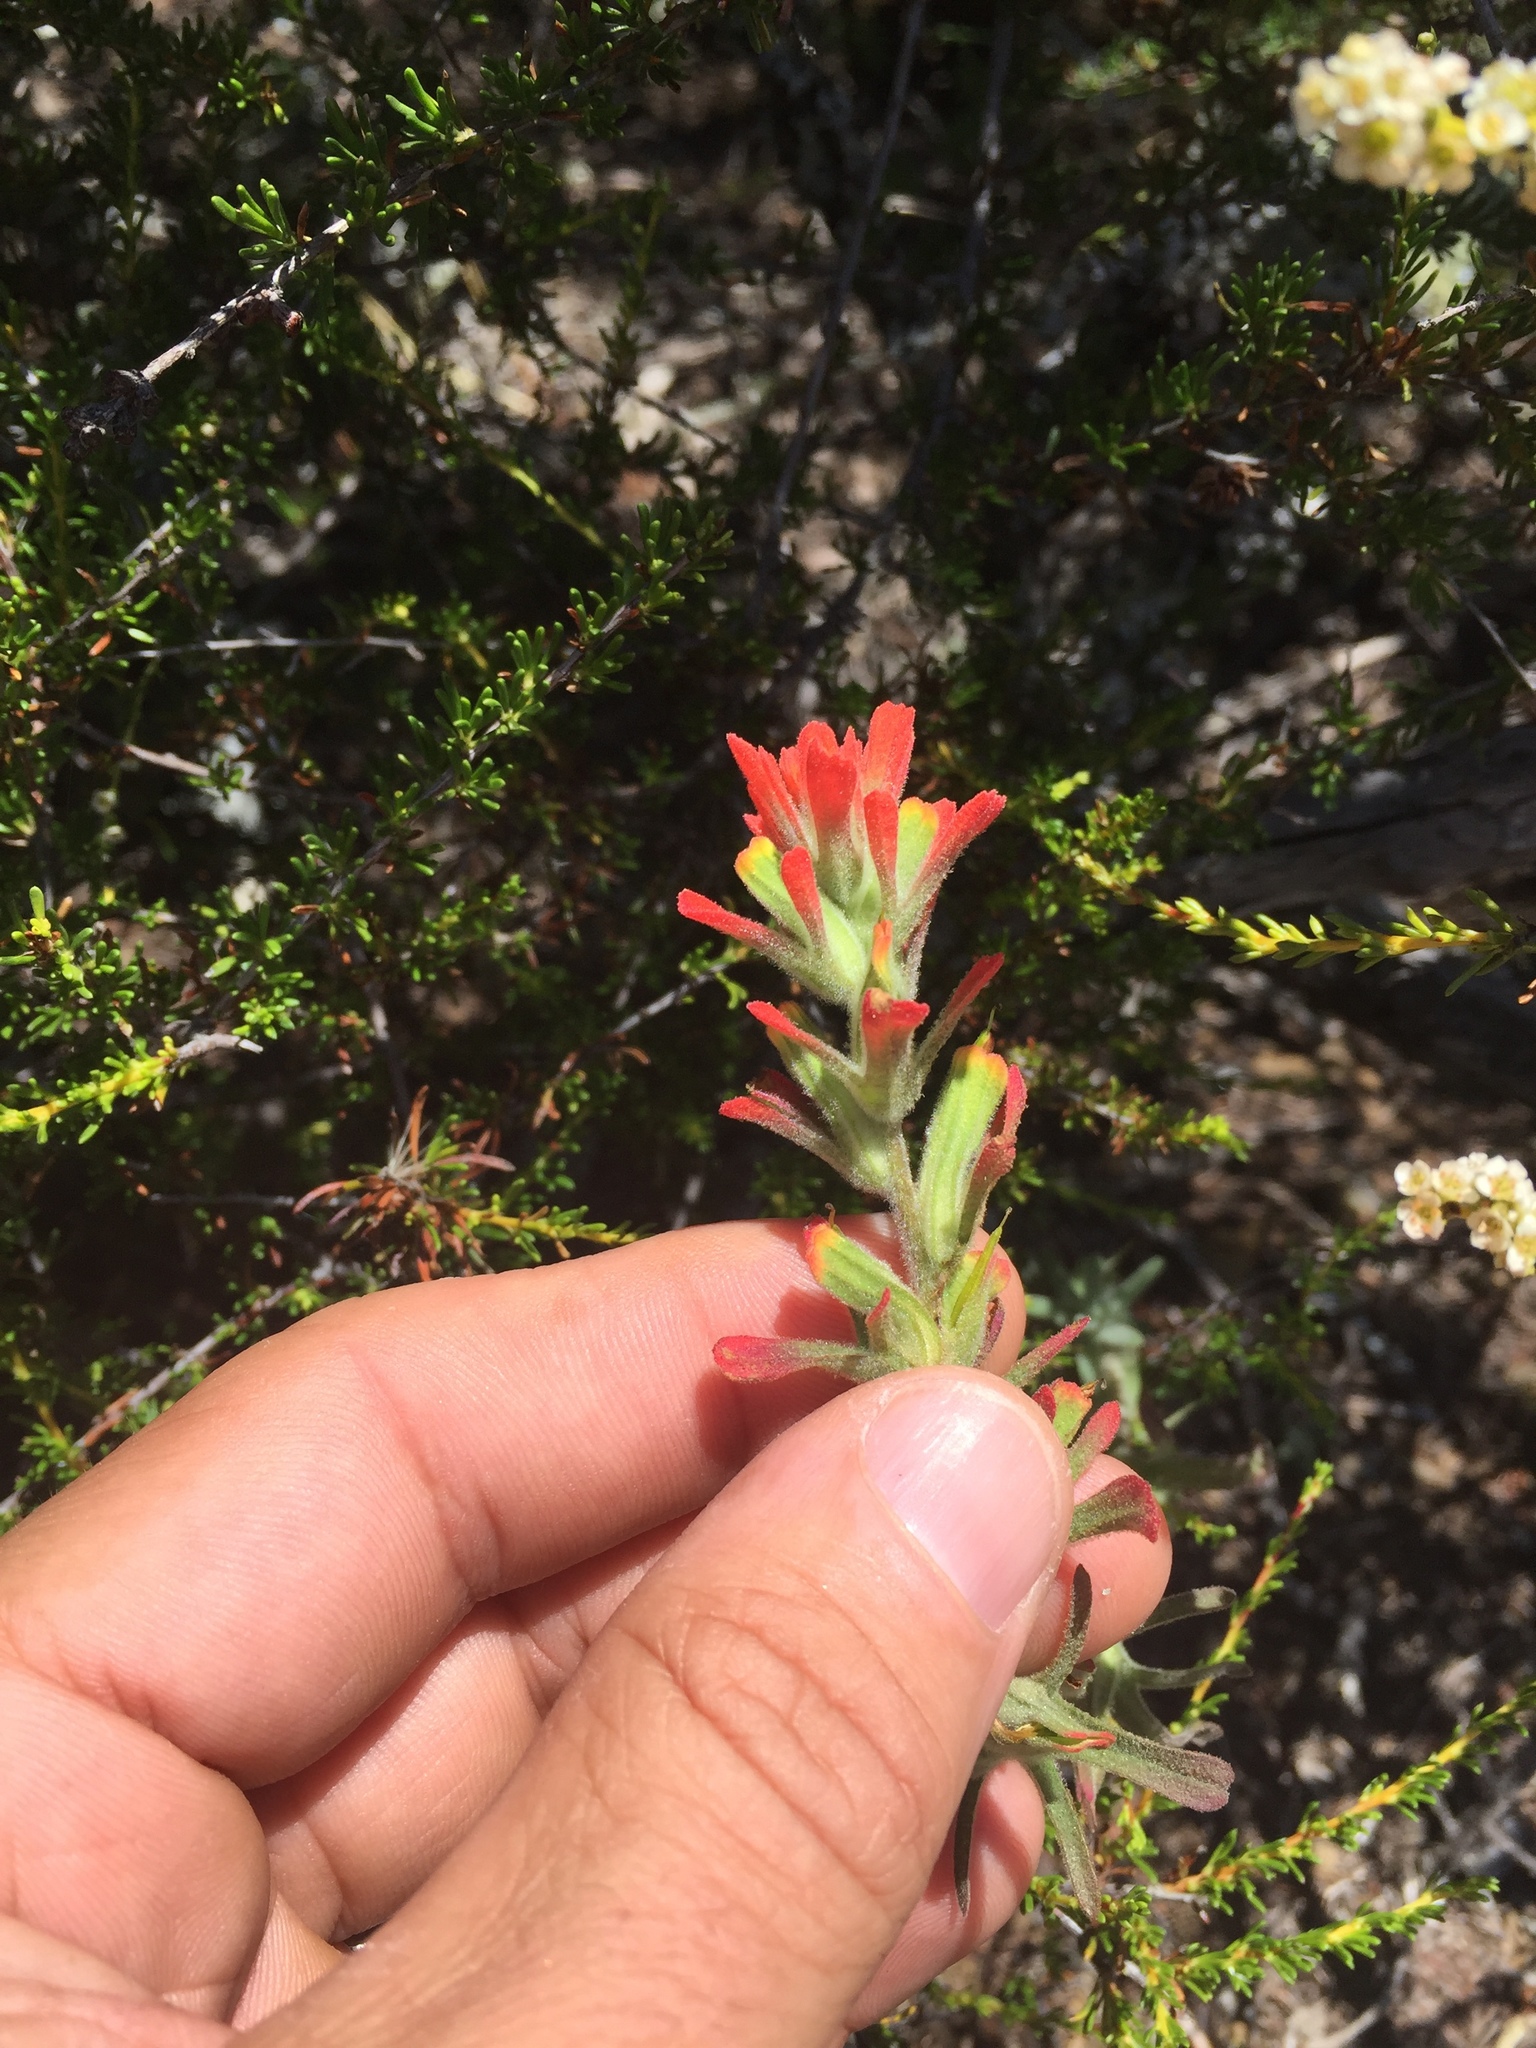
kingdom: Plantae
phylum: Tracheophyta
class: Magnoliopsida
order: Lamiales
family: Orobanchaceae
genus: Castilleja
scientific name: Castilleja foliolosa
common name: Woolly indian paintbrush
